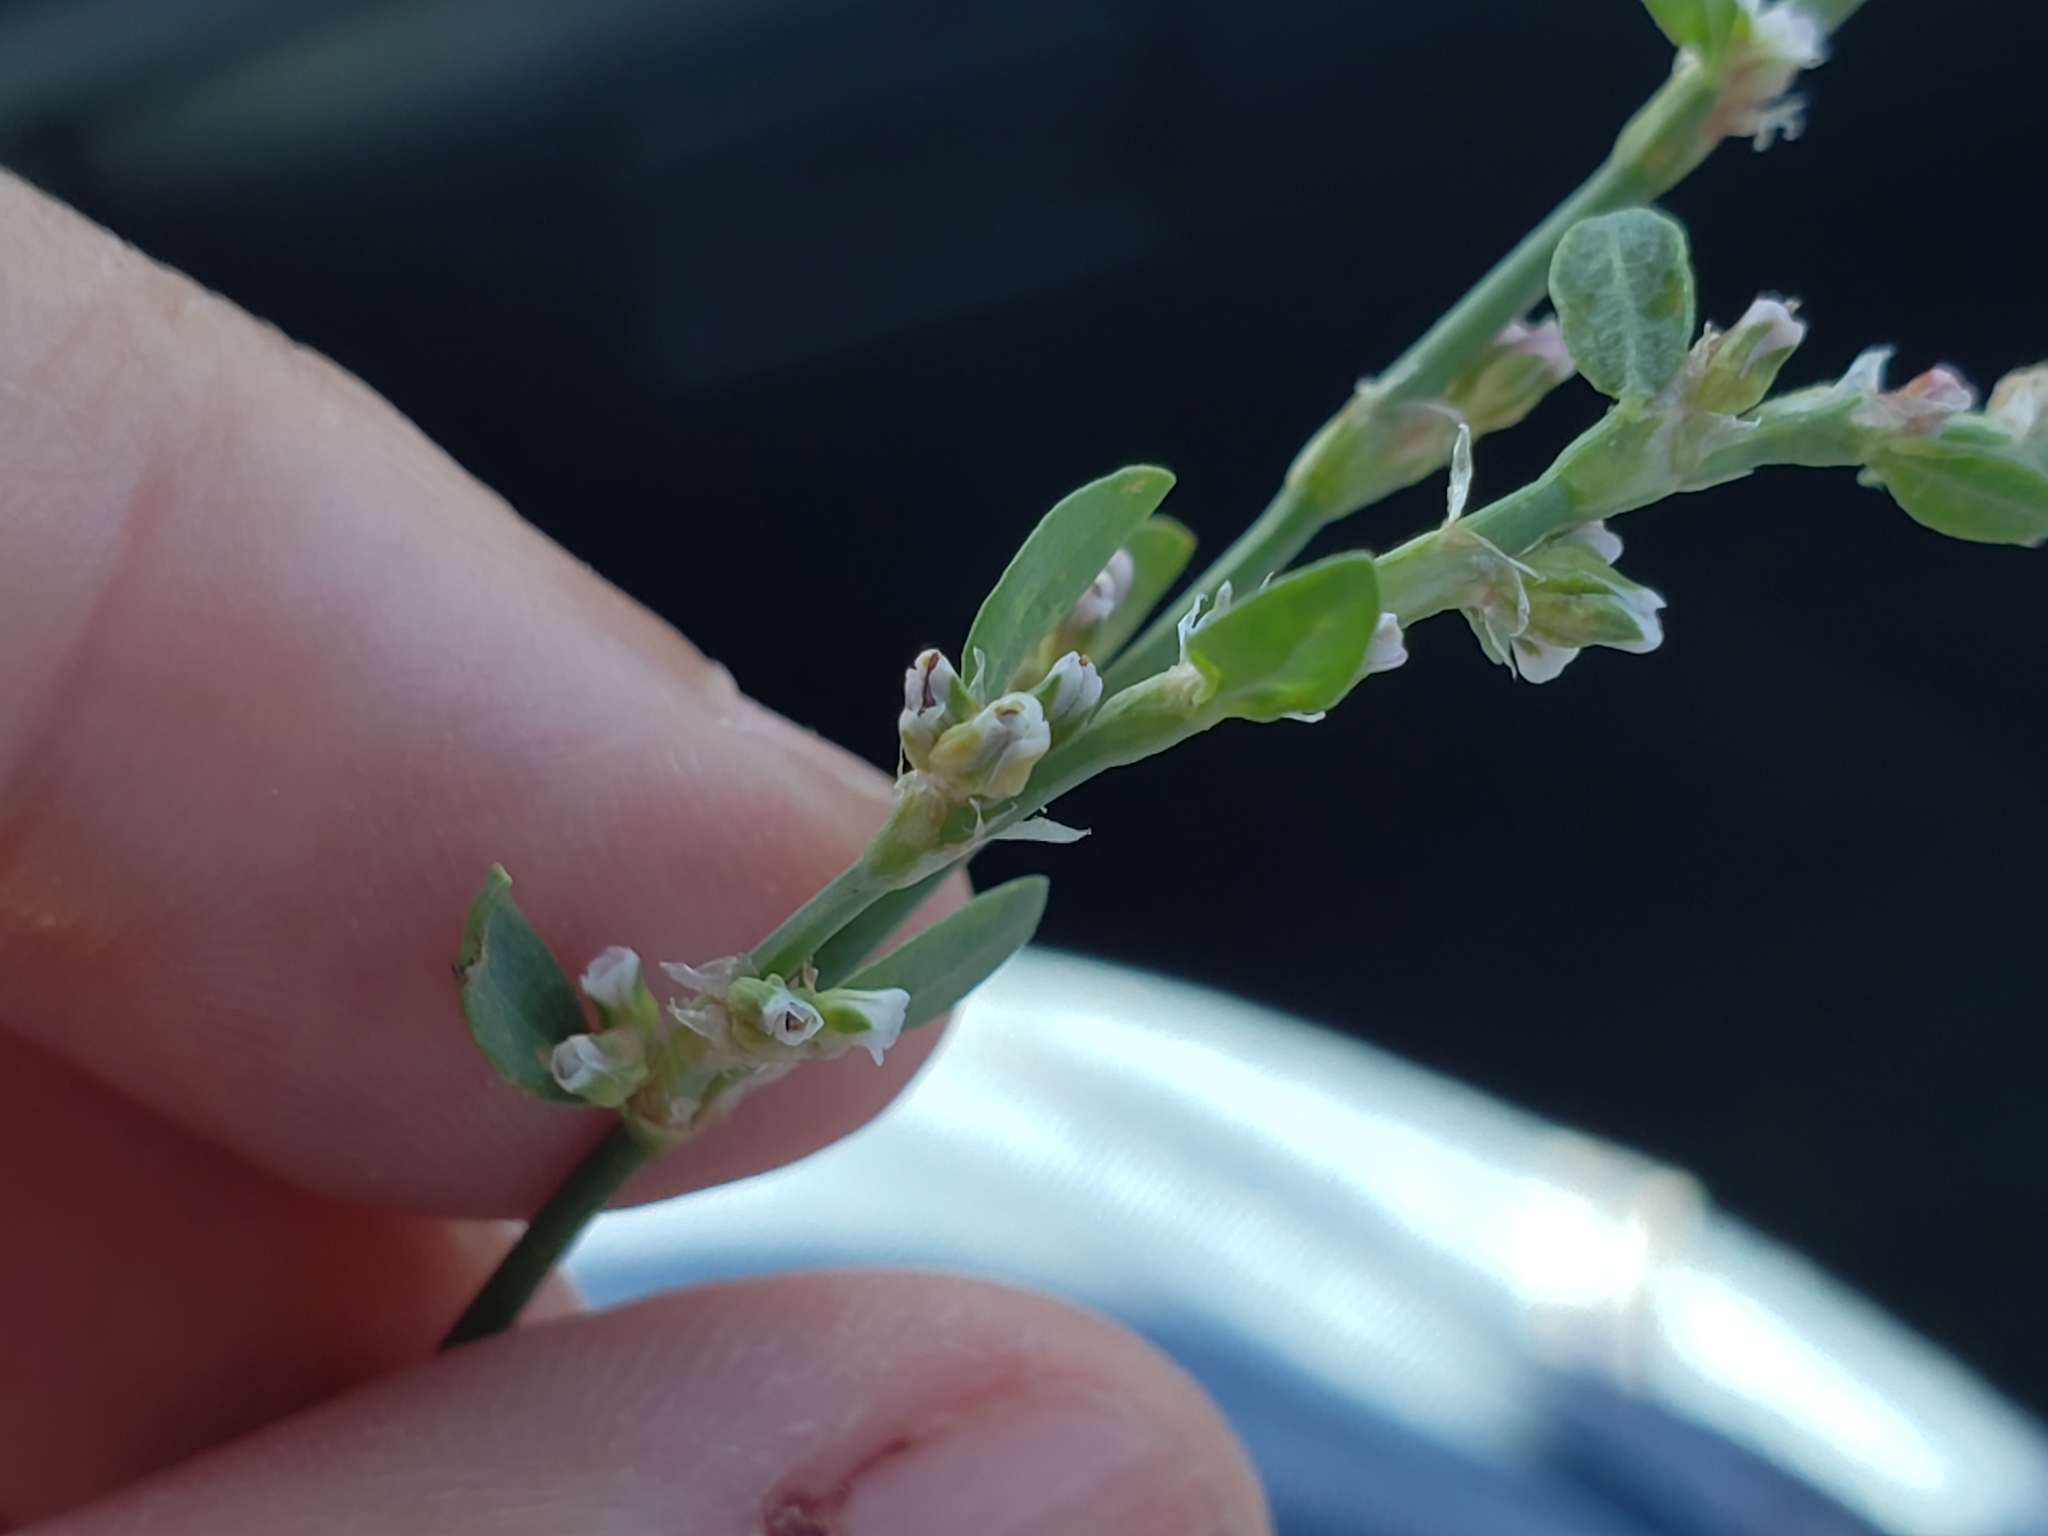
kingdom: Plantae
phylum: Tracheophyta
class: Magnoliopsida
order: Caryophyllales
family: Polygonaceae
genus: Polygonum
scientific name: Polygonum aviculare
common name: Prostrate knotweed
